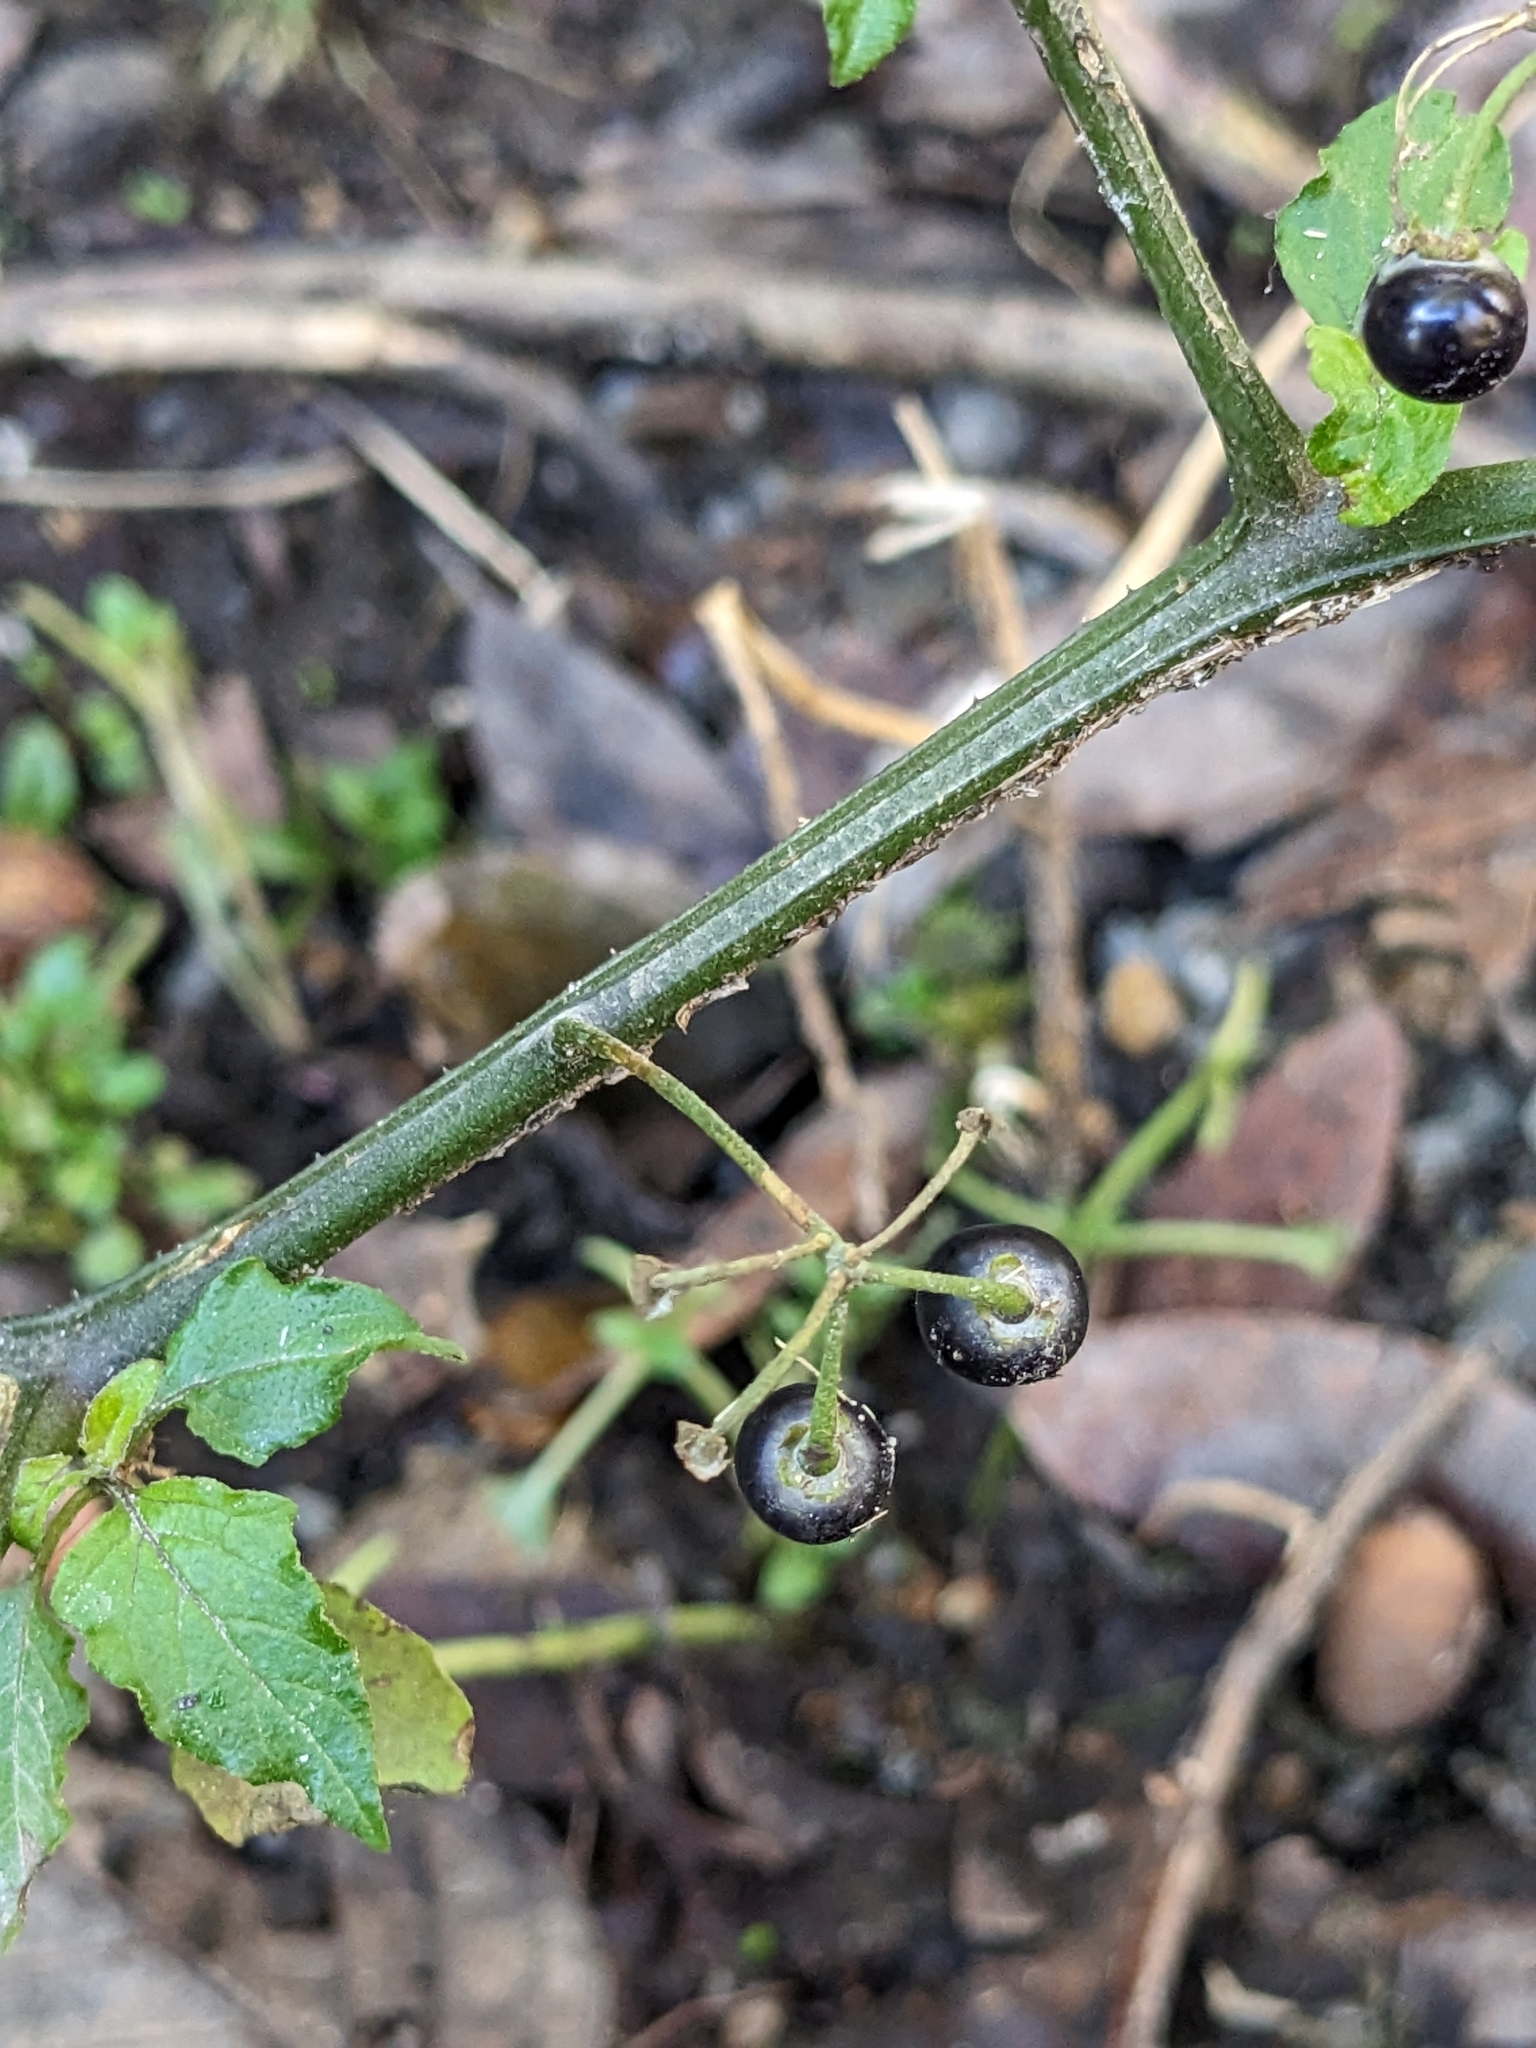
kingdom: Plantae
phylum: Tracheophyta
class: Magnoliopsida
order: Solanales
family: Solanaceae
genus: Solanum
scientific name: Solanum americanum
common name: American black nightshade
